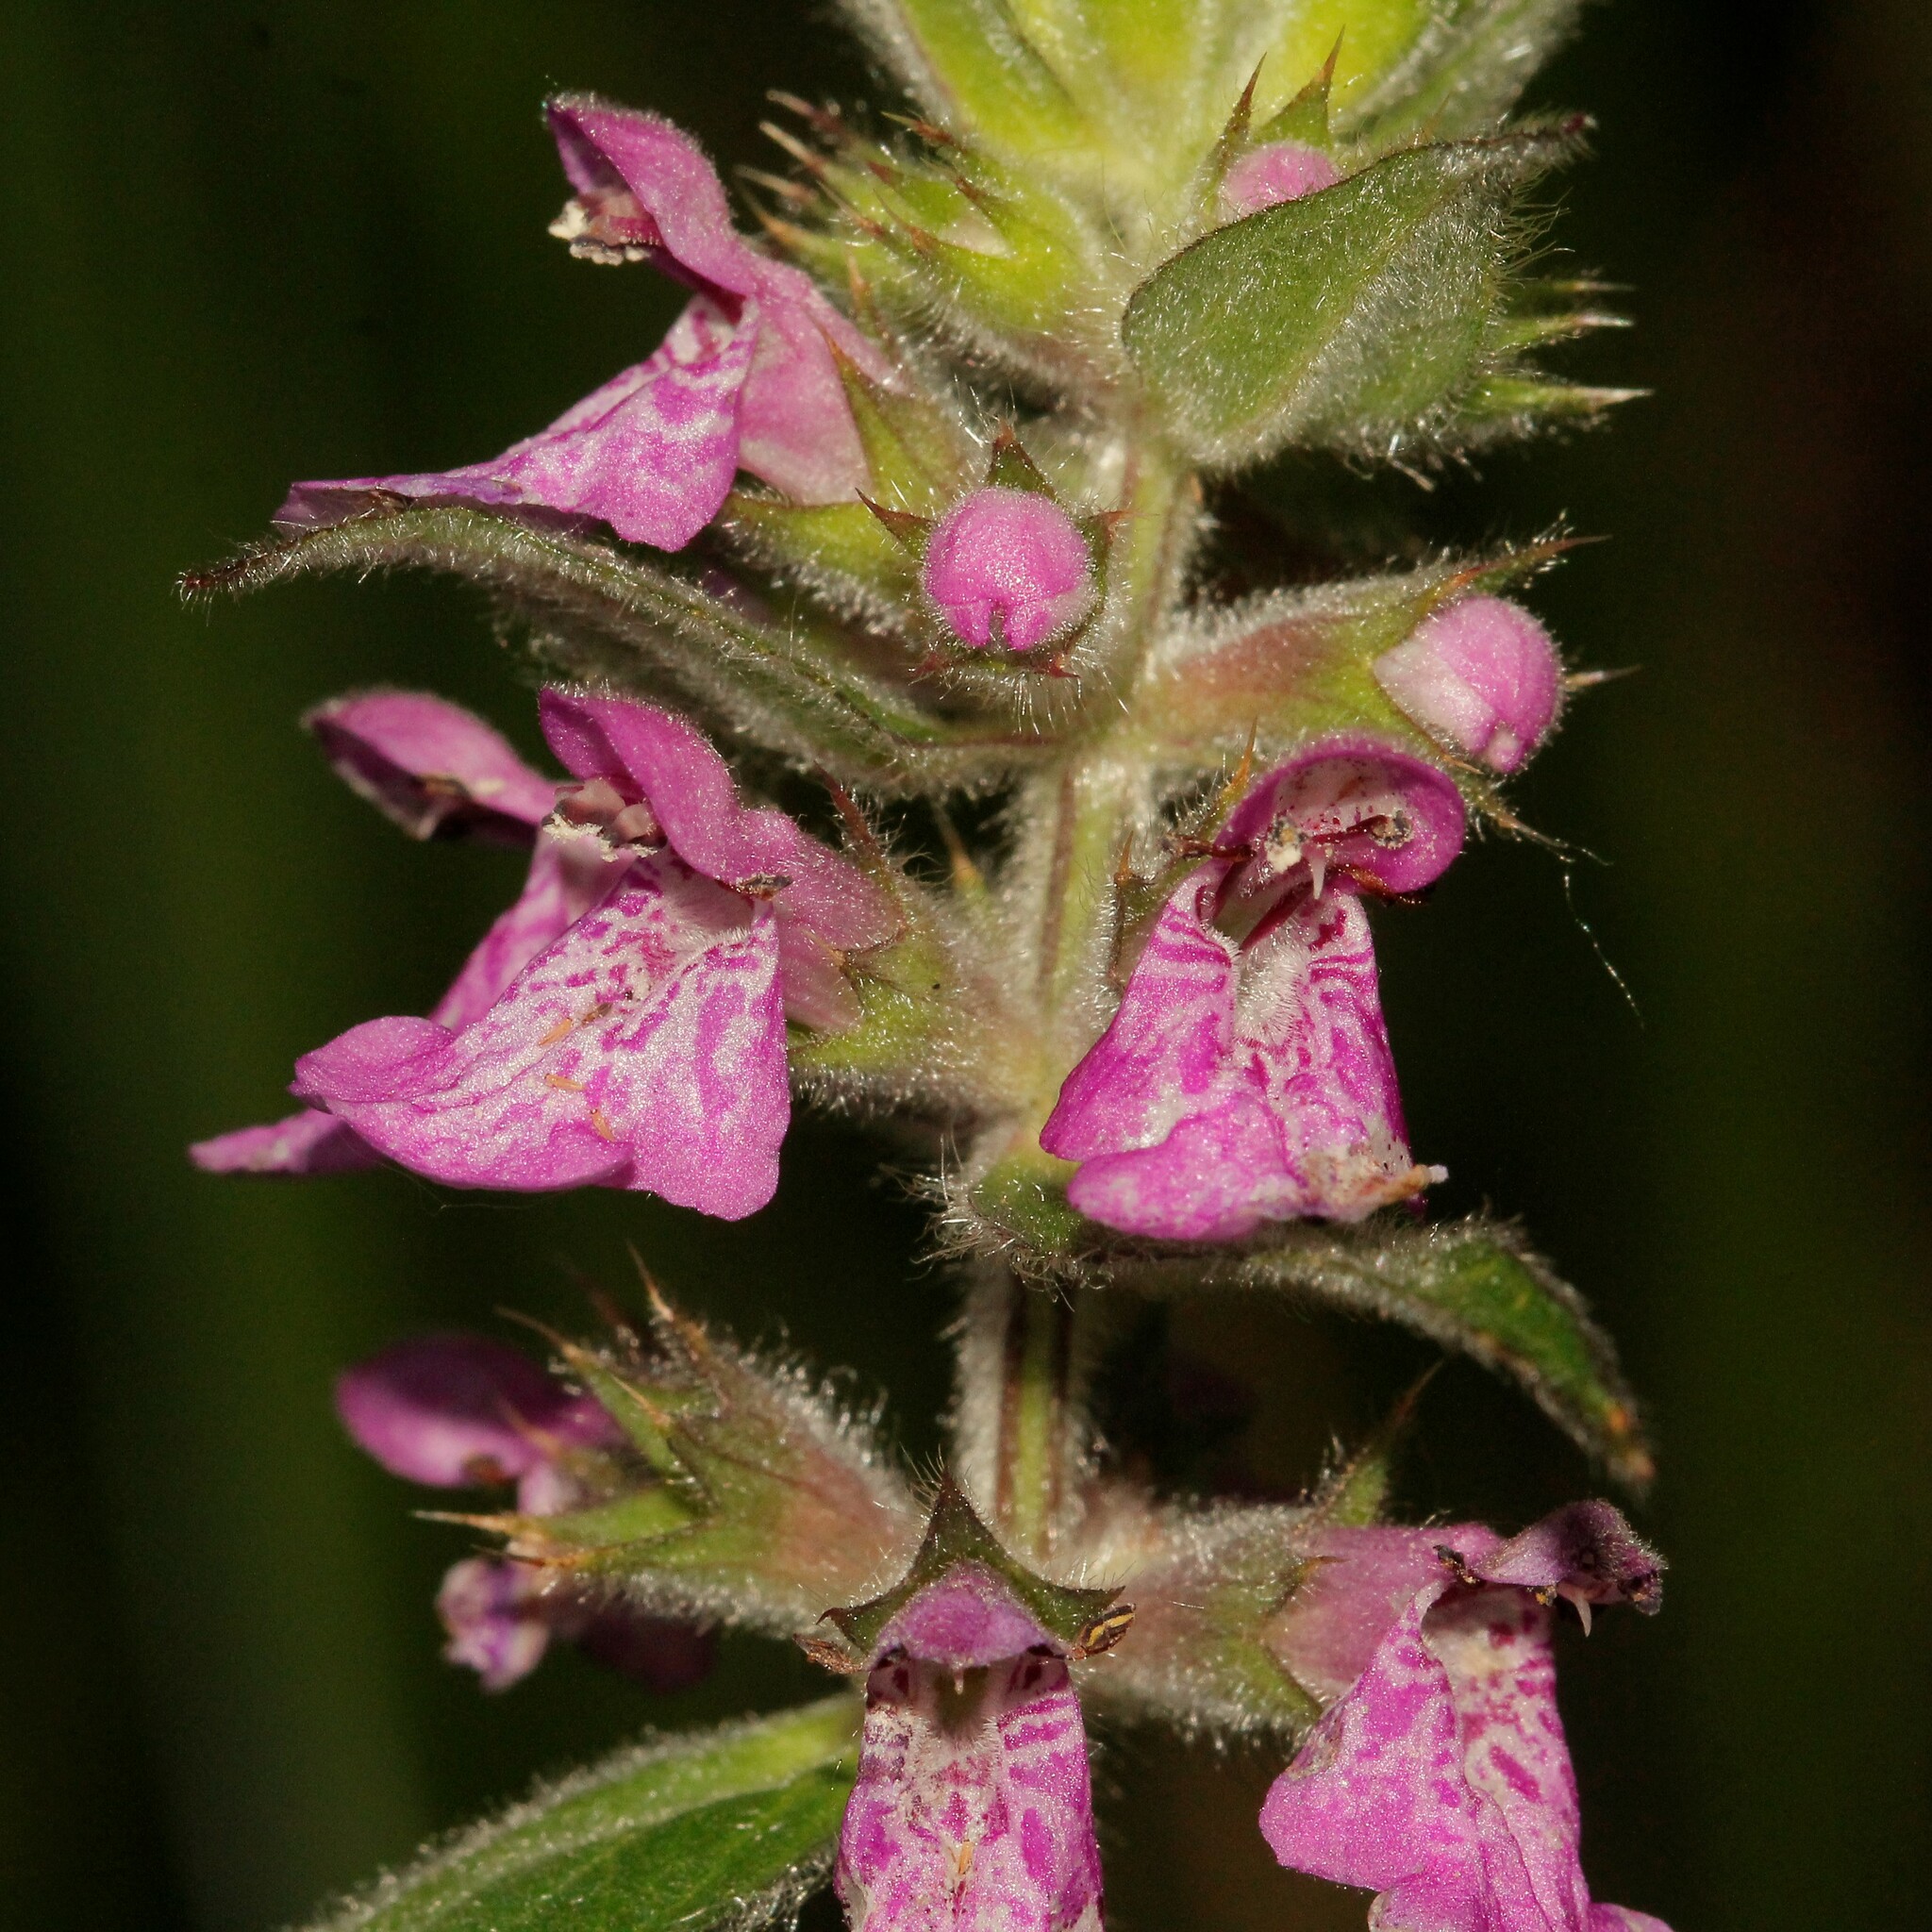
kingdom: Plantae
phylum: Tracheophyta
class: Magnoliopsida
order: Lamiales
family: Lamiaceae
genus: Stachys
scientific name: Stachys palustris
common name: Marsh woundwort
